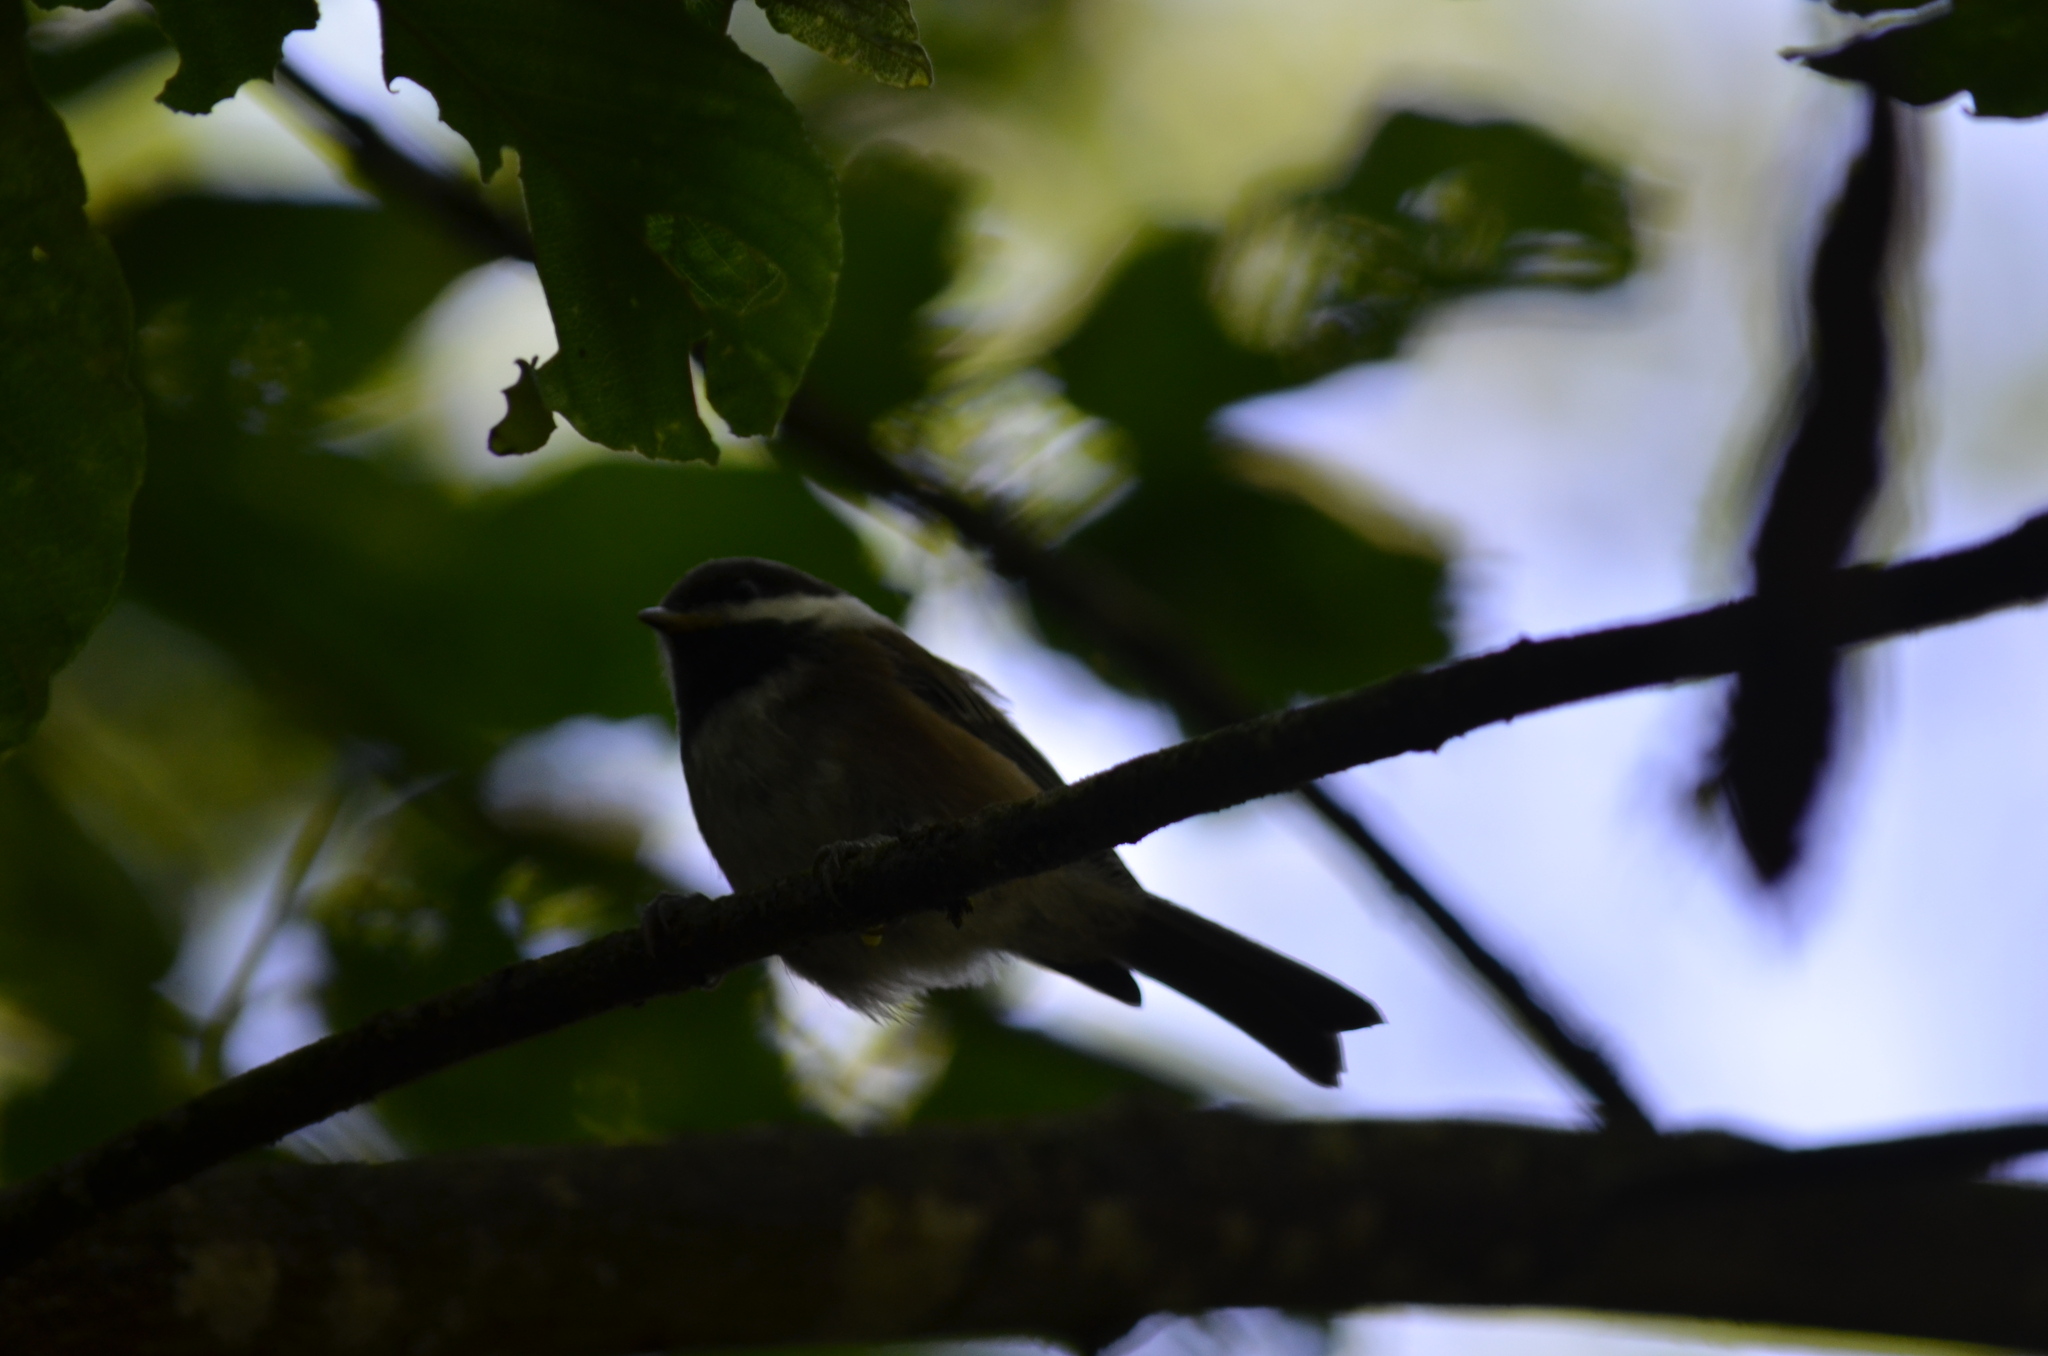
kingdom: Animalia
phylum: Chordata
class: Aves
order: Passeriformes
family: Paridae
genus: Poecile
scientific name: Poecile rufescens
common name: Chestnut-backed chickadee
